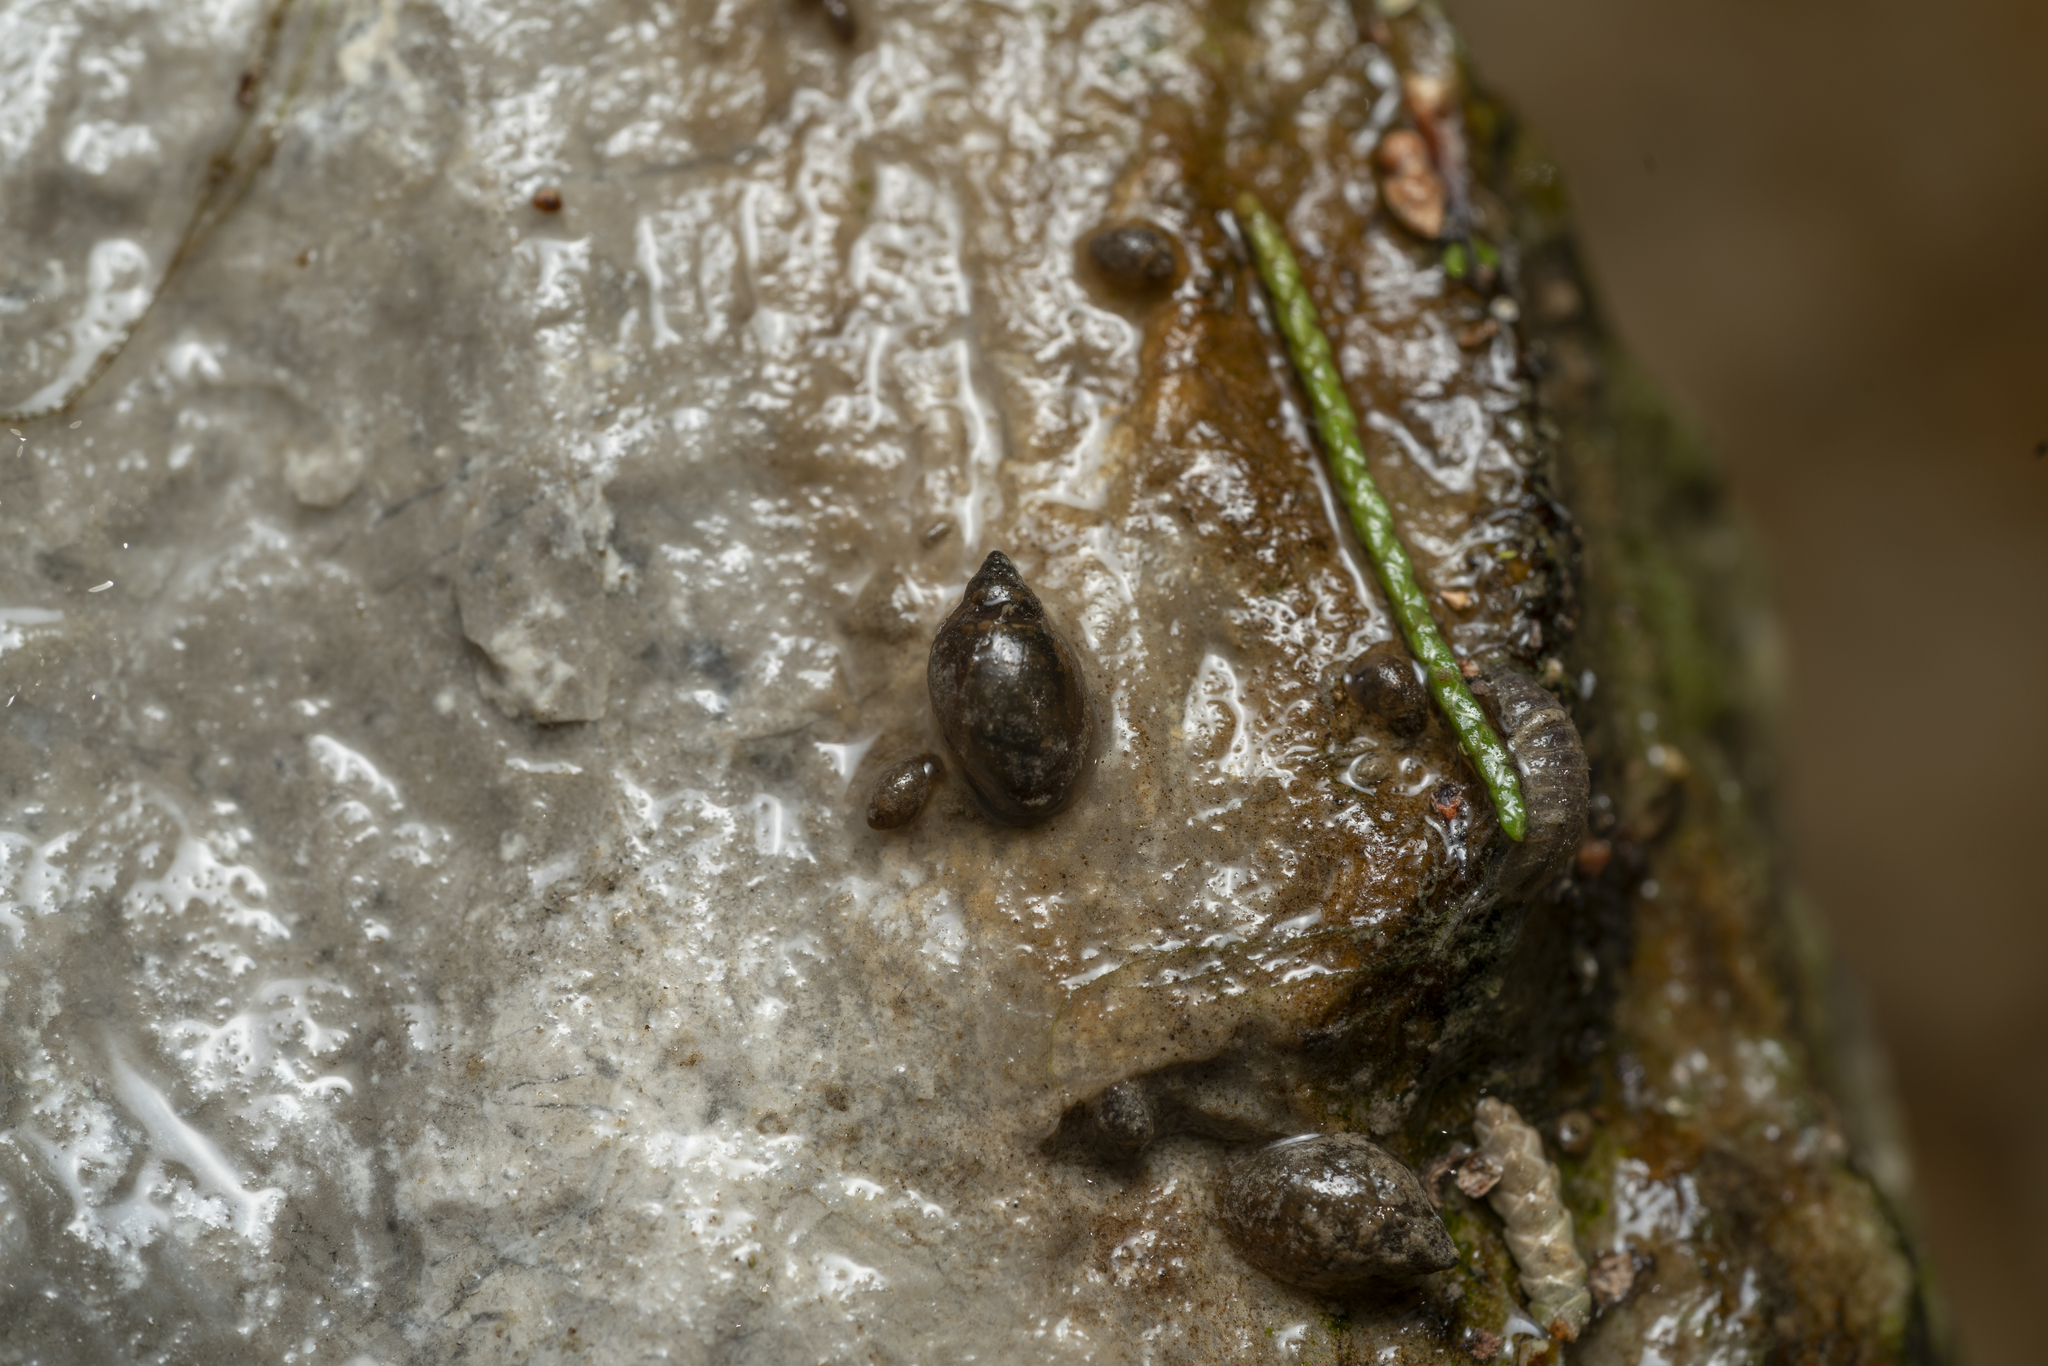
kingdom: Animalia
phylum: Mollusca
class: Gastropoda
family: Physidae
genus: Physella
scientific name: Physella acuta
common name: European physa
